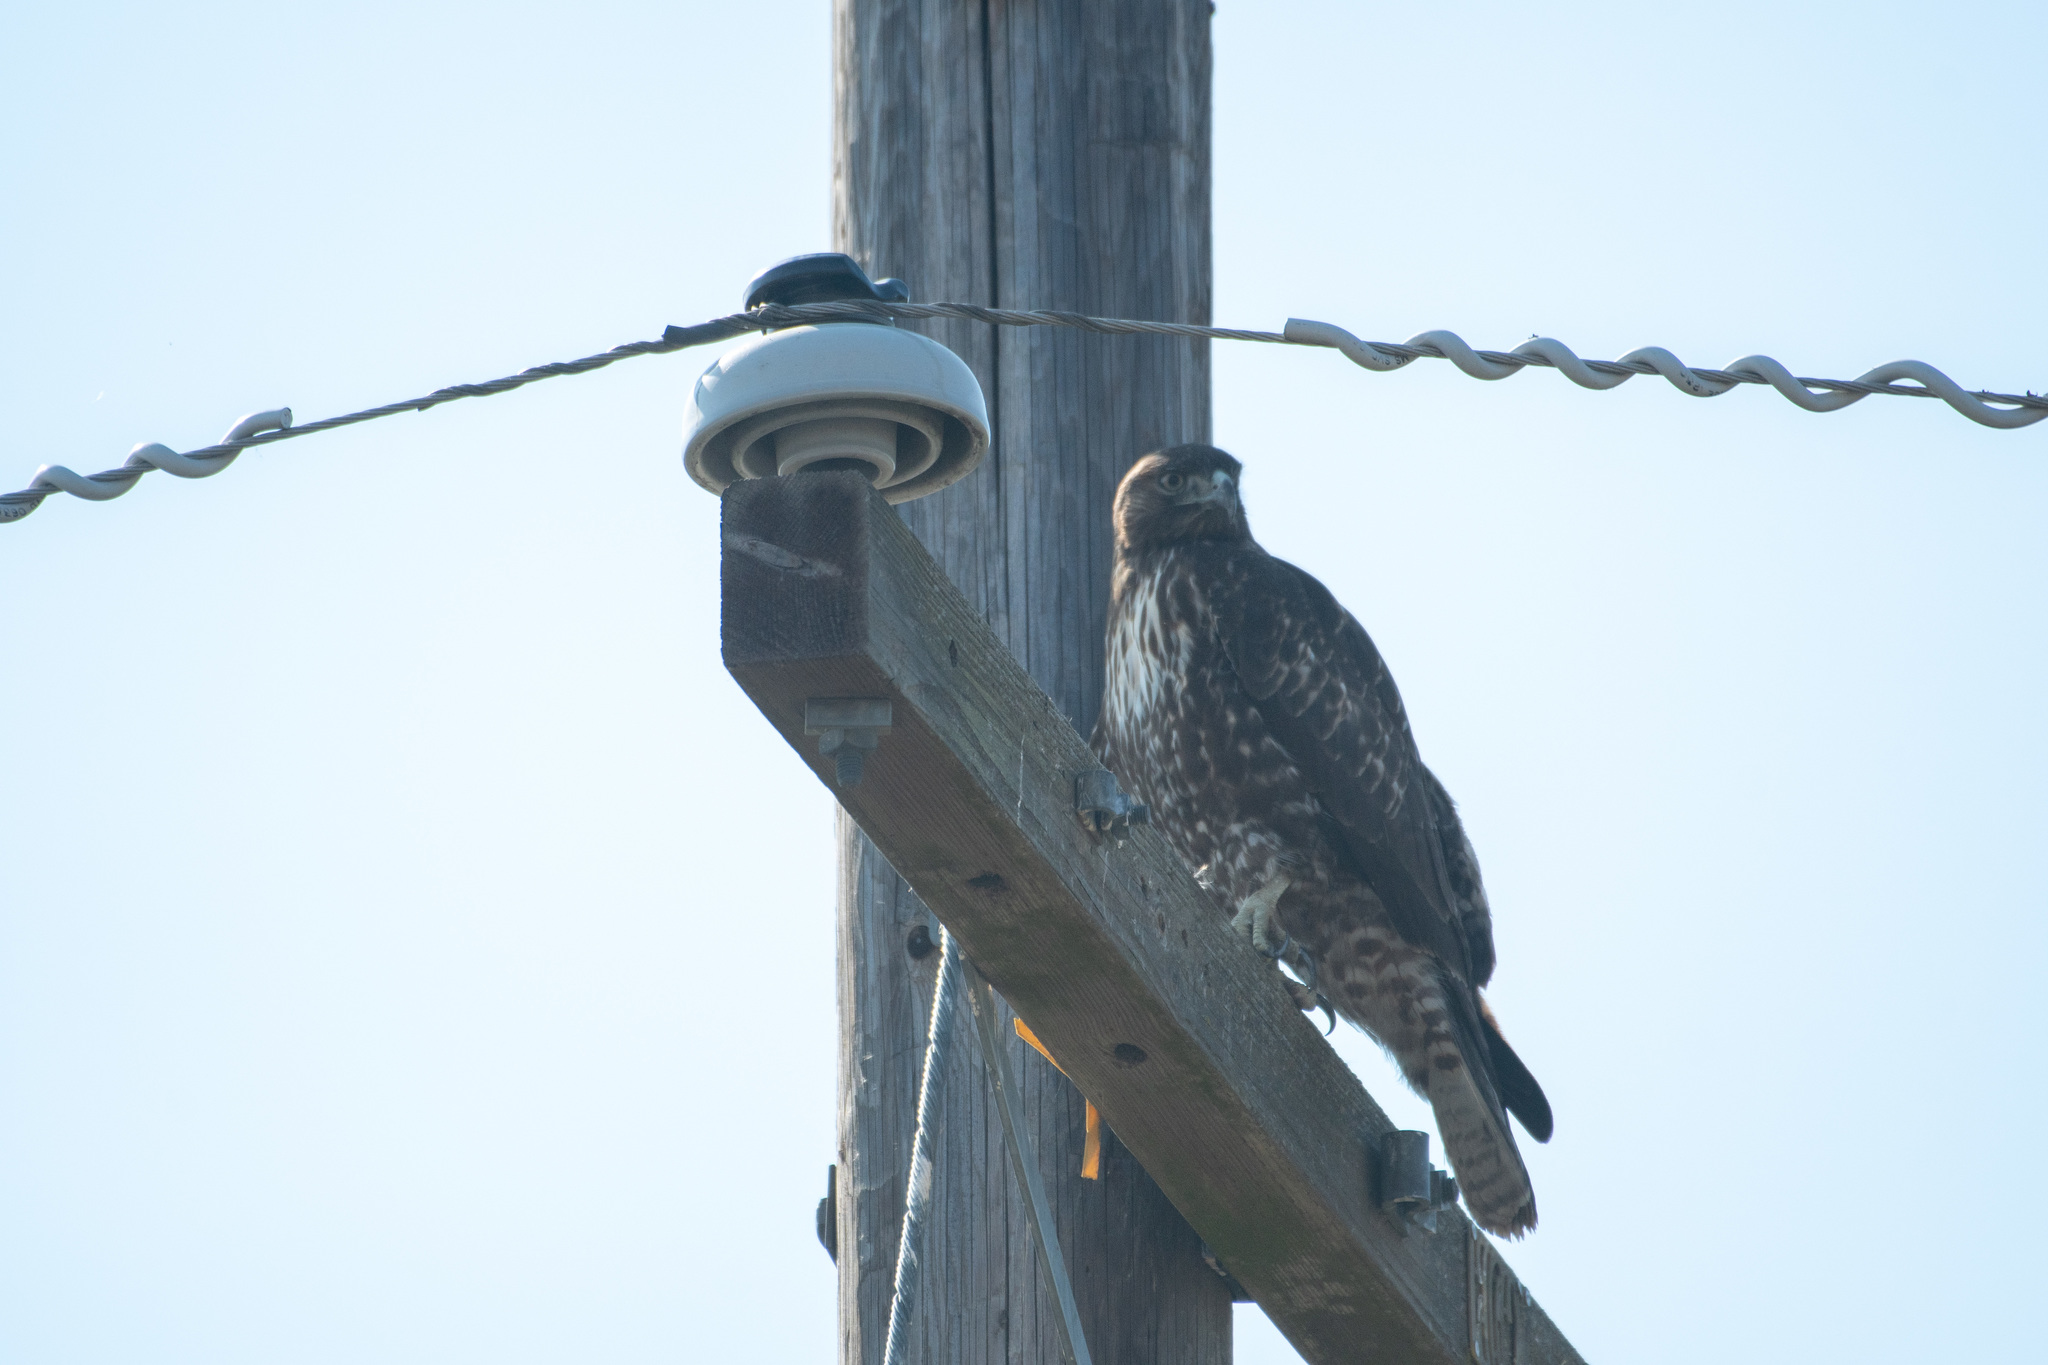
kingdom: Animalia
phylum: Chordata
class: Aves
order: Accipitriformes
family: Accipitridae
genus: Buteo
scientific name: Buteo jamaicensis
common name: Red-tailed hawk
